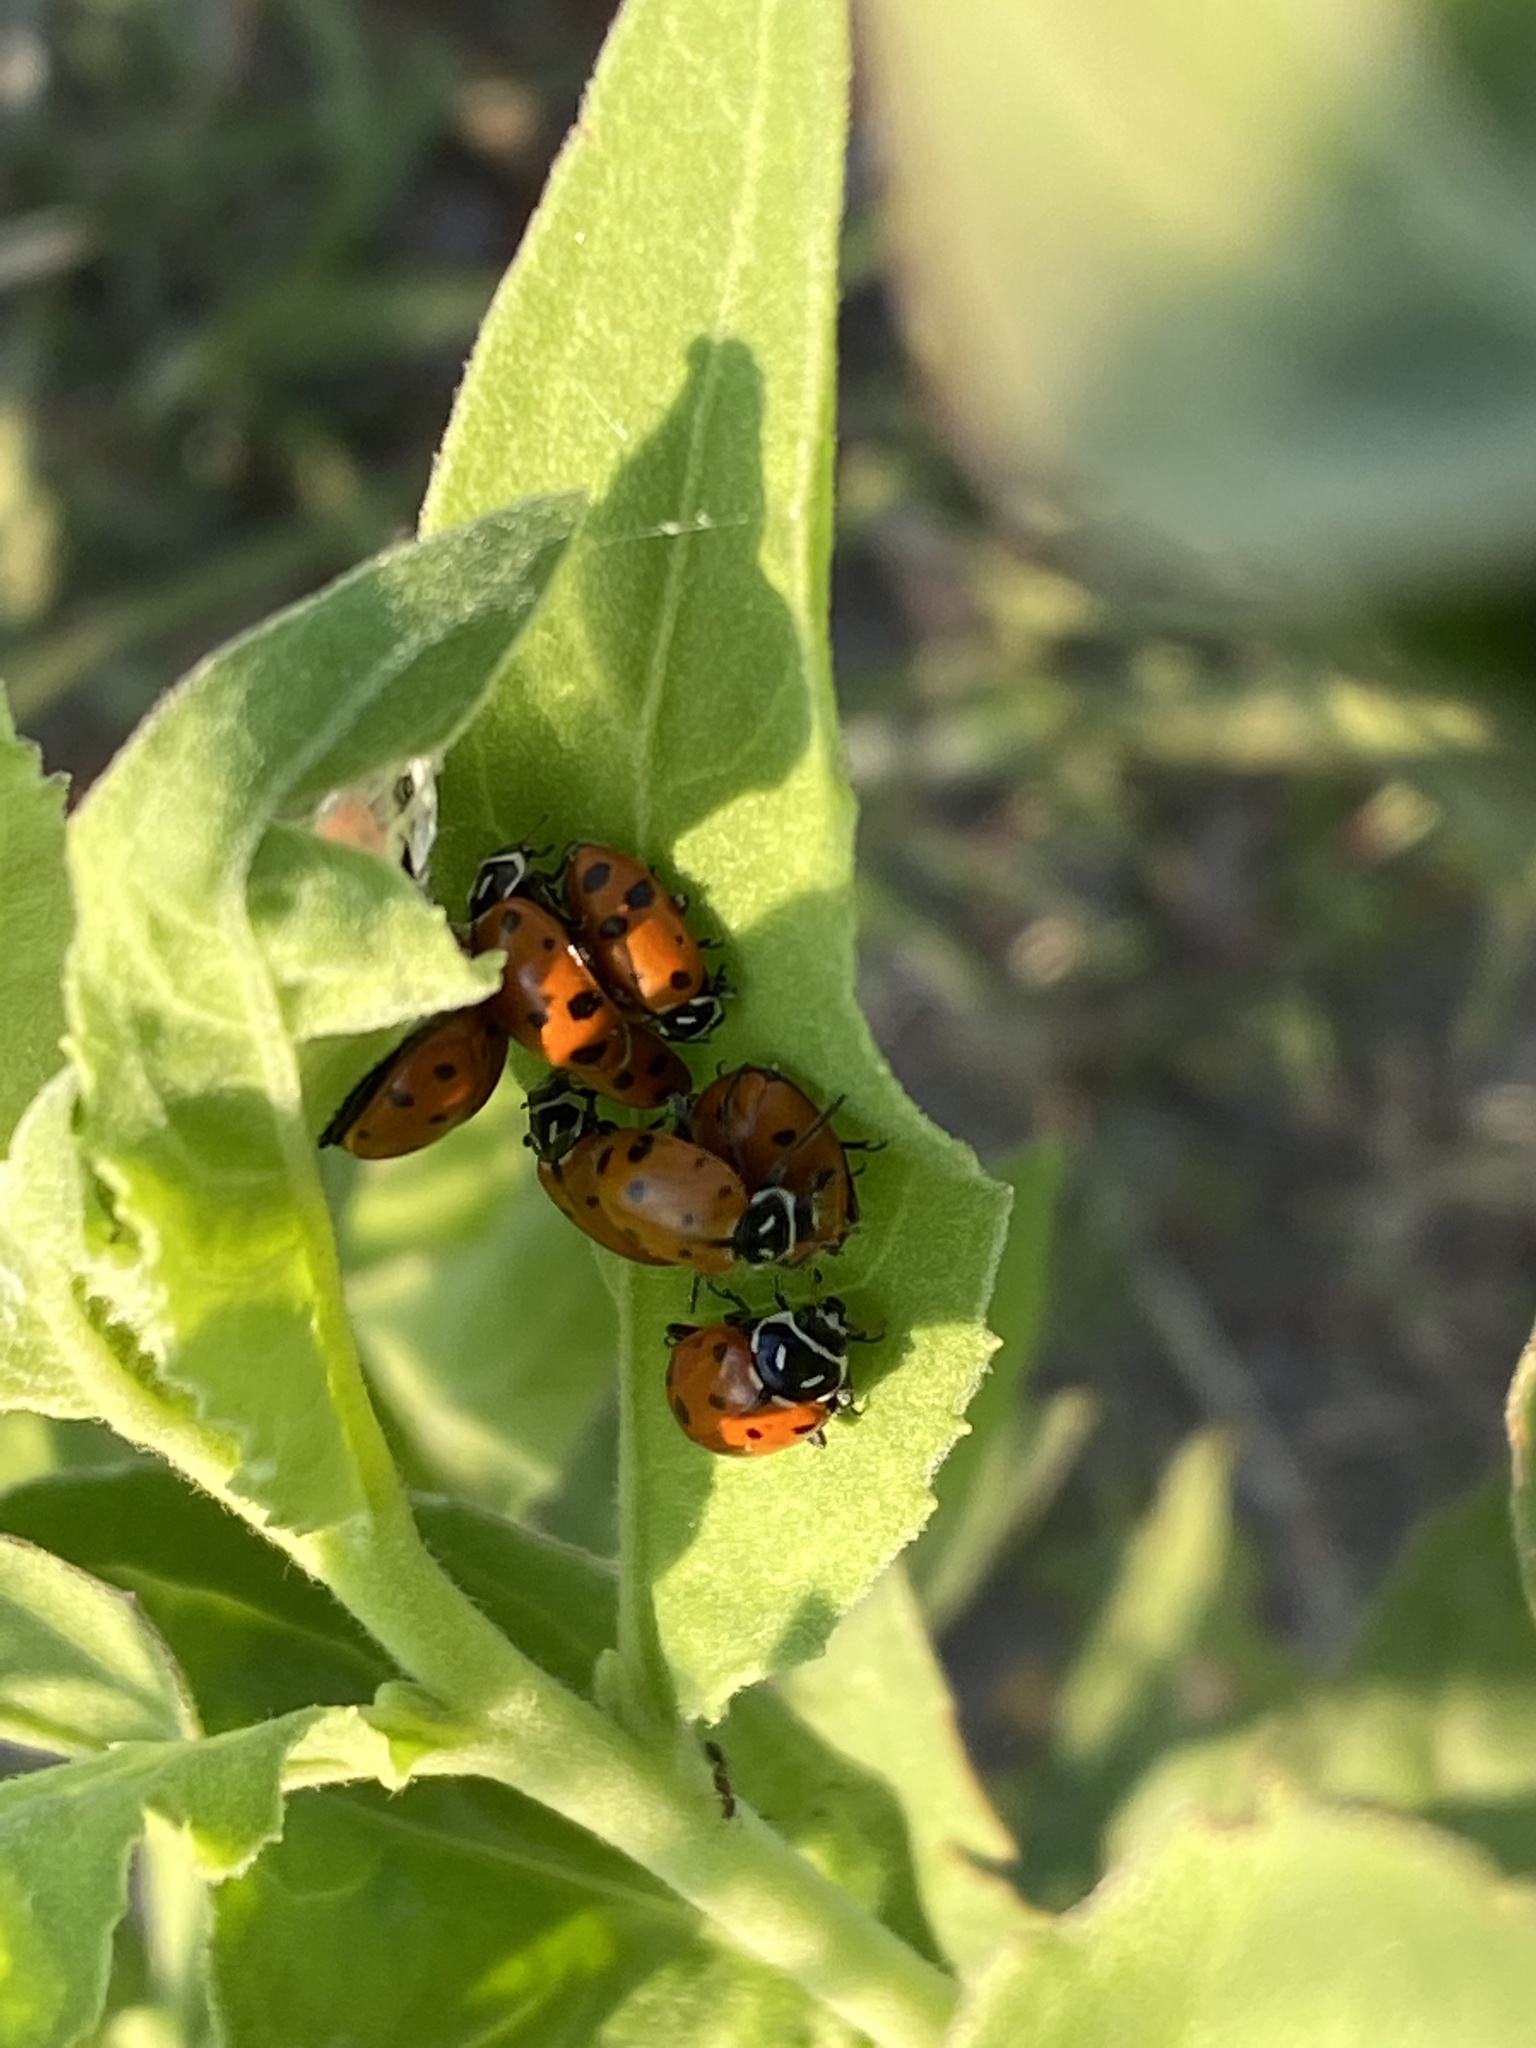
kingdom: Animalia
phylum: Arthropoda
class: Insecta
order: Coleoptera
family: Coccinellidae
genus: Hippodamia
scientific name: Hippodamia convergens
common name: Convergent lady beetle
